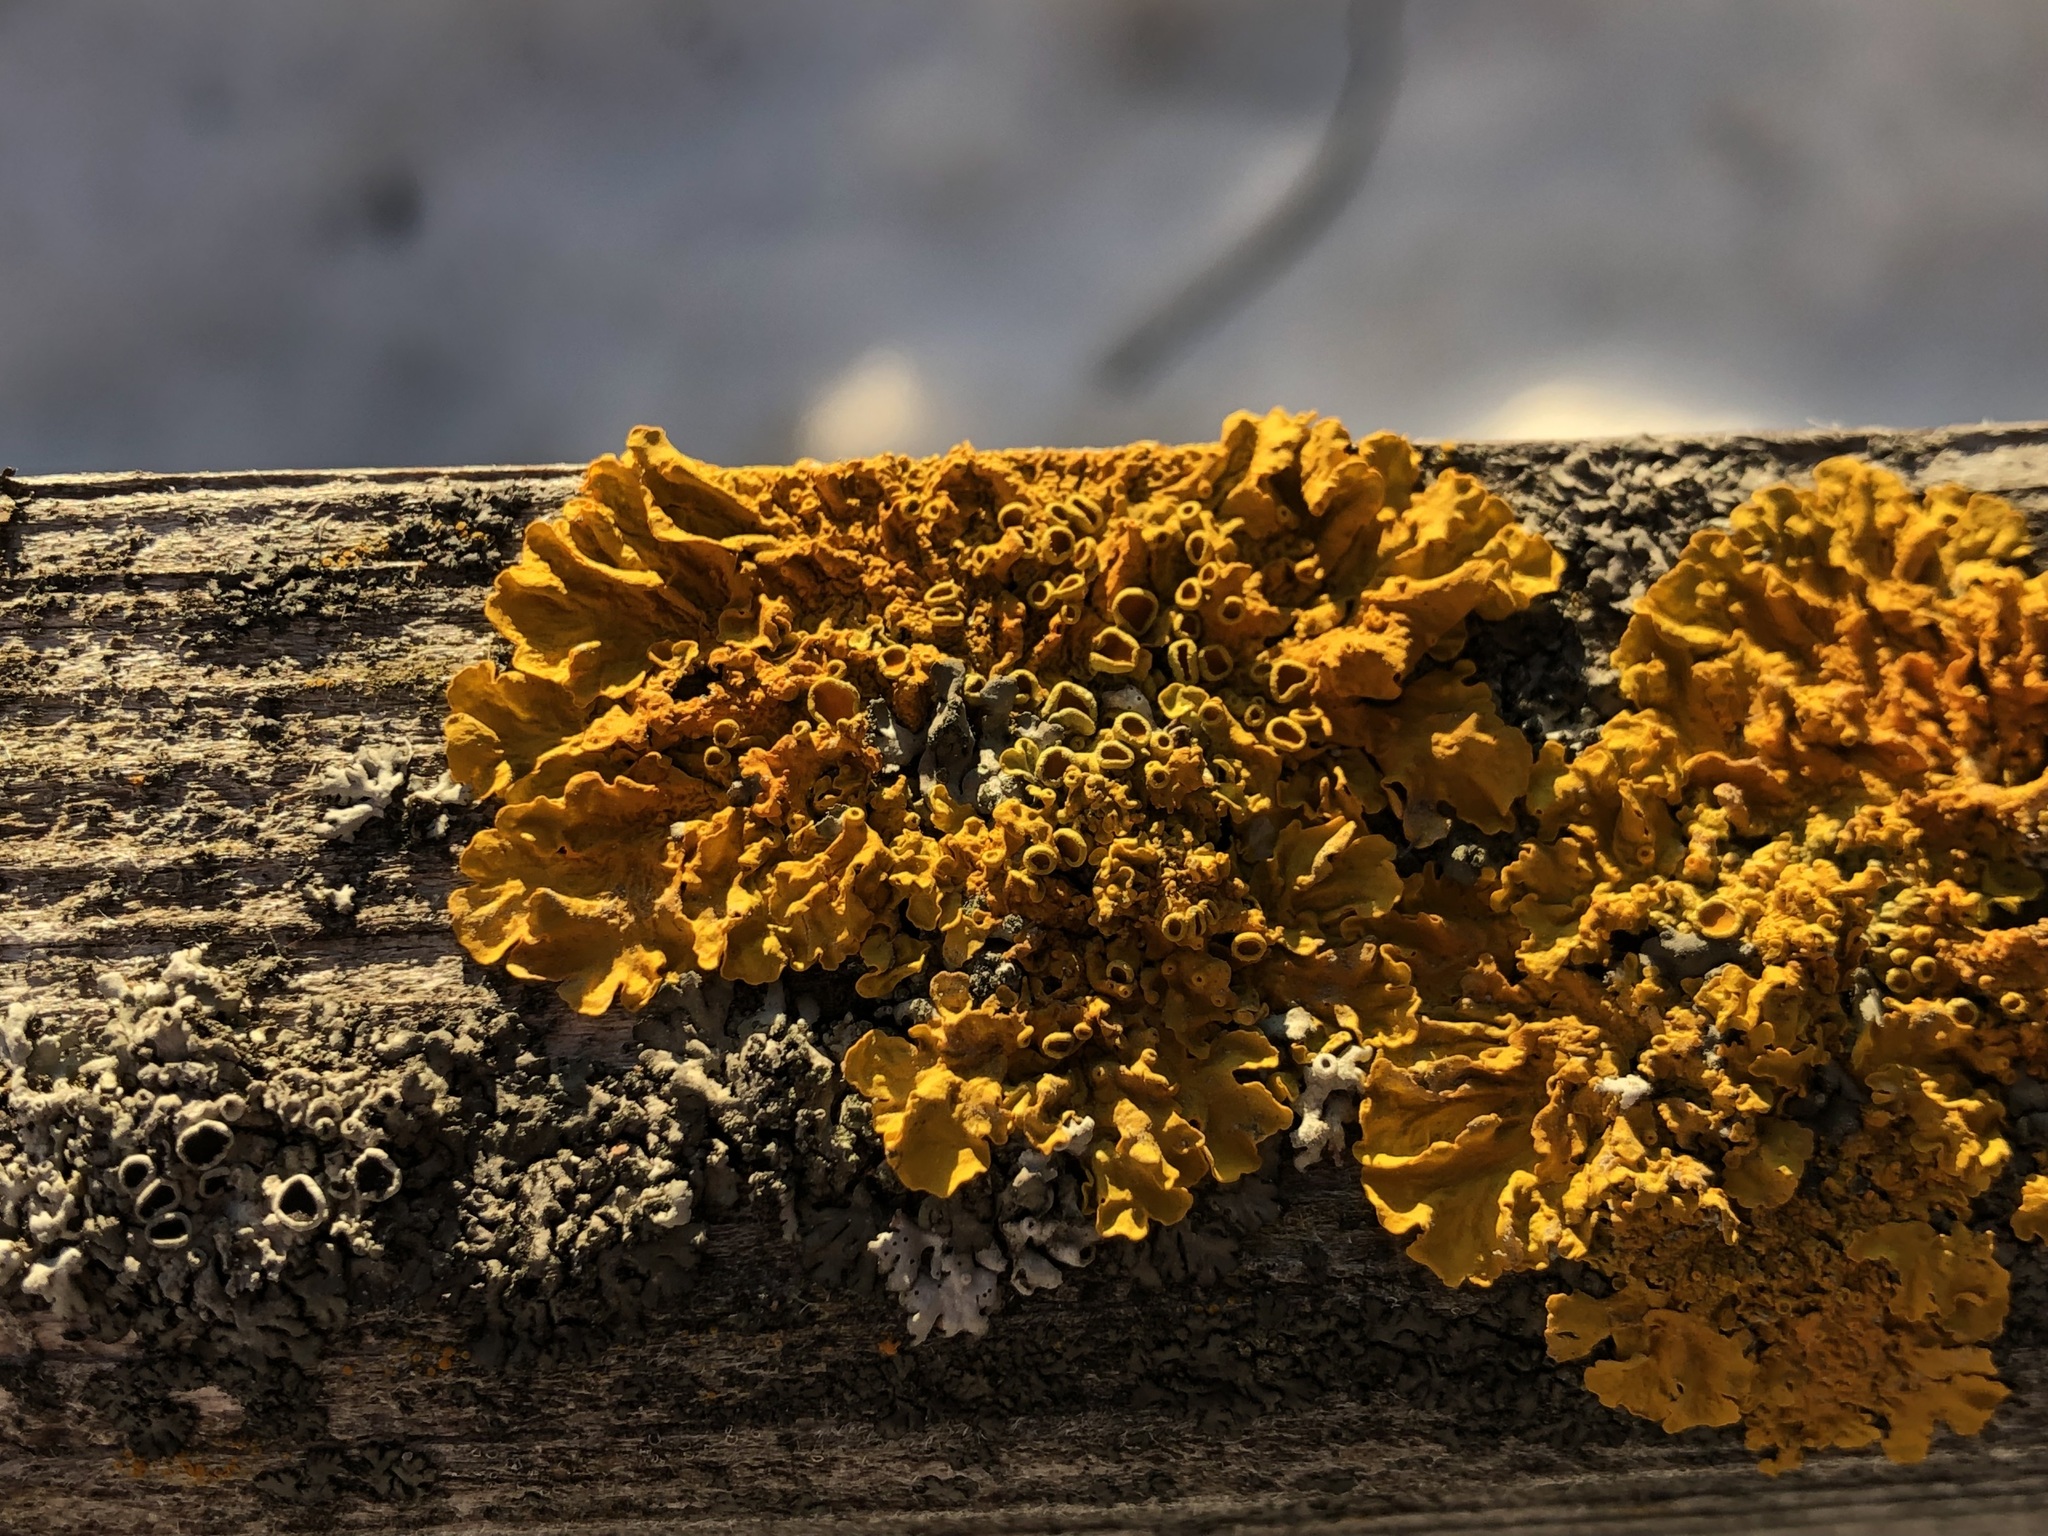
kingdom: Fungi
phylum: Ascomycota
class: Lecanoromycetes
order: Teloschistales
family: Teloschistaceae
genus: Xanthoria
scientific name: Xanthoria parietina
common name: Common orange lichen
